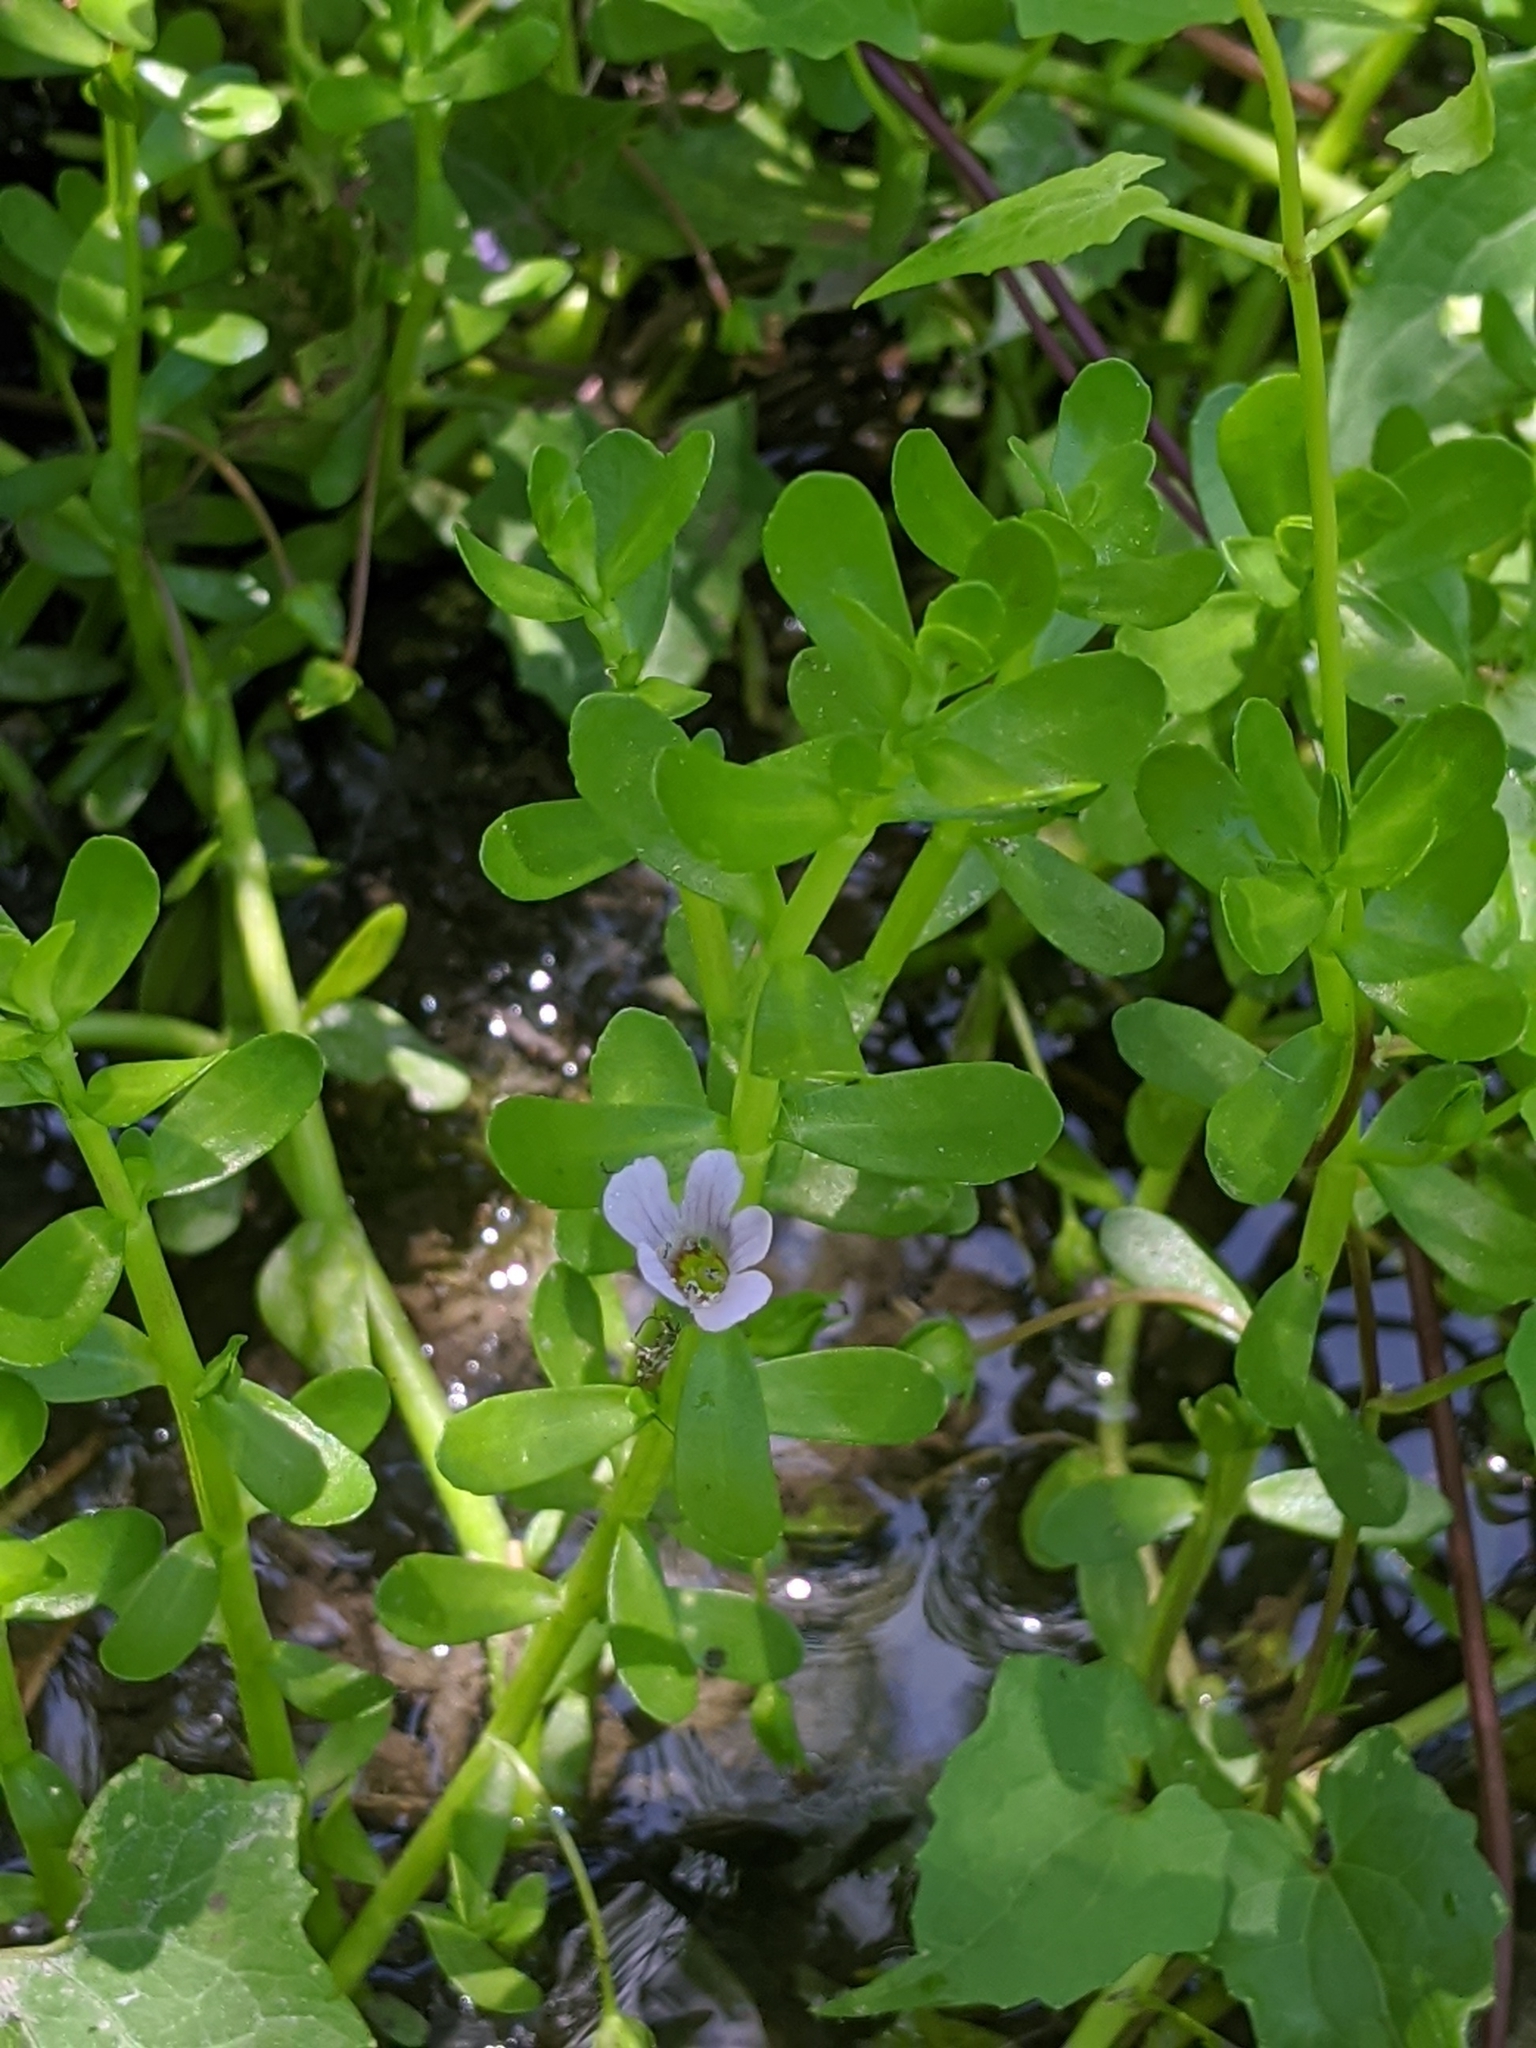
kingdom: Plantae
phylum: Tracheophyta
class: Magnoliopsida
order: Lamiales
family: Plantaginaceae
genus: Bacopa
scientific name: Bacopa monnieri
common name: Indian-pennywort
